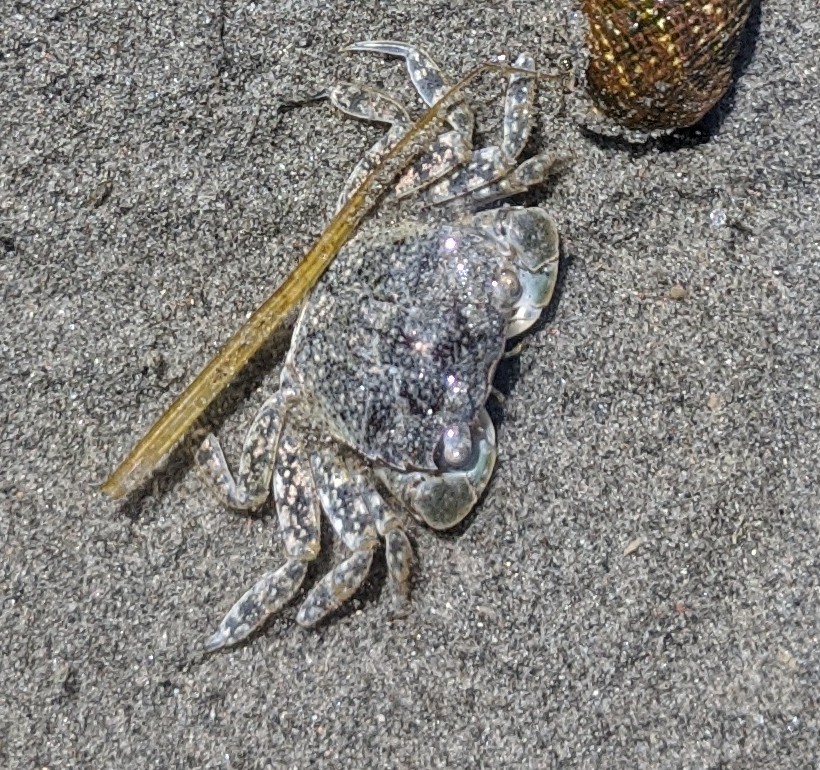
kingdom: Animalia
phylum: Arthropoda
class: Malacostraca
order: Decapoda
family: Varunidae
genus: Hemigrapsus
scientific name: Hemigrapsus oregonensis
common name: Yellow shore crab
